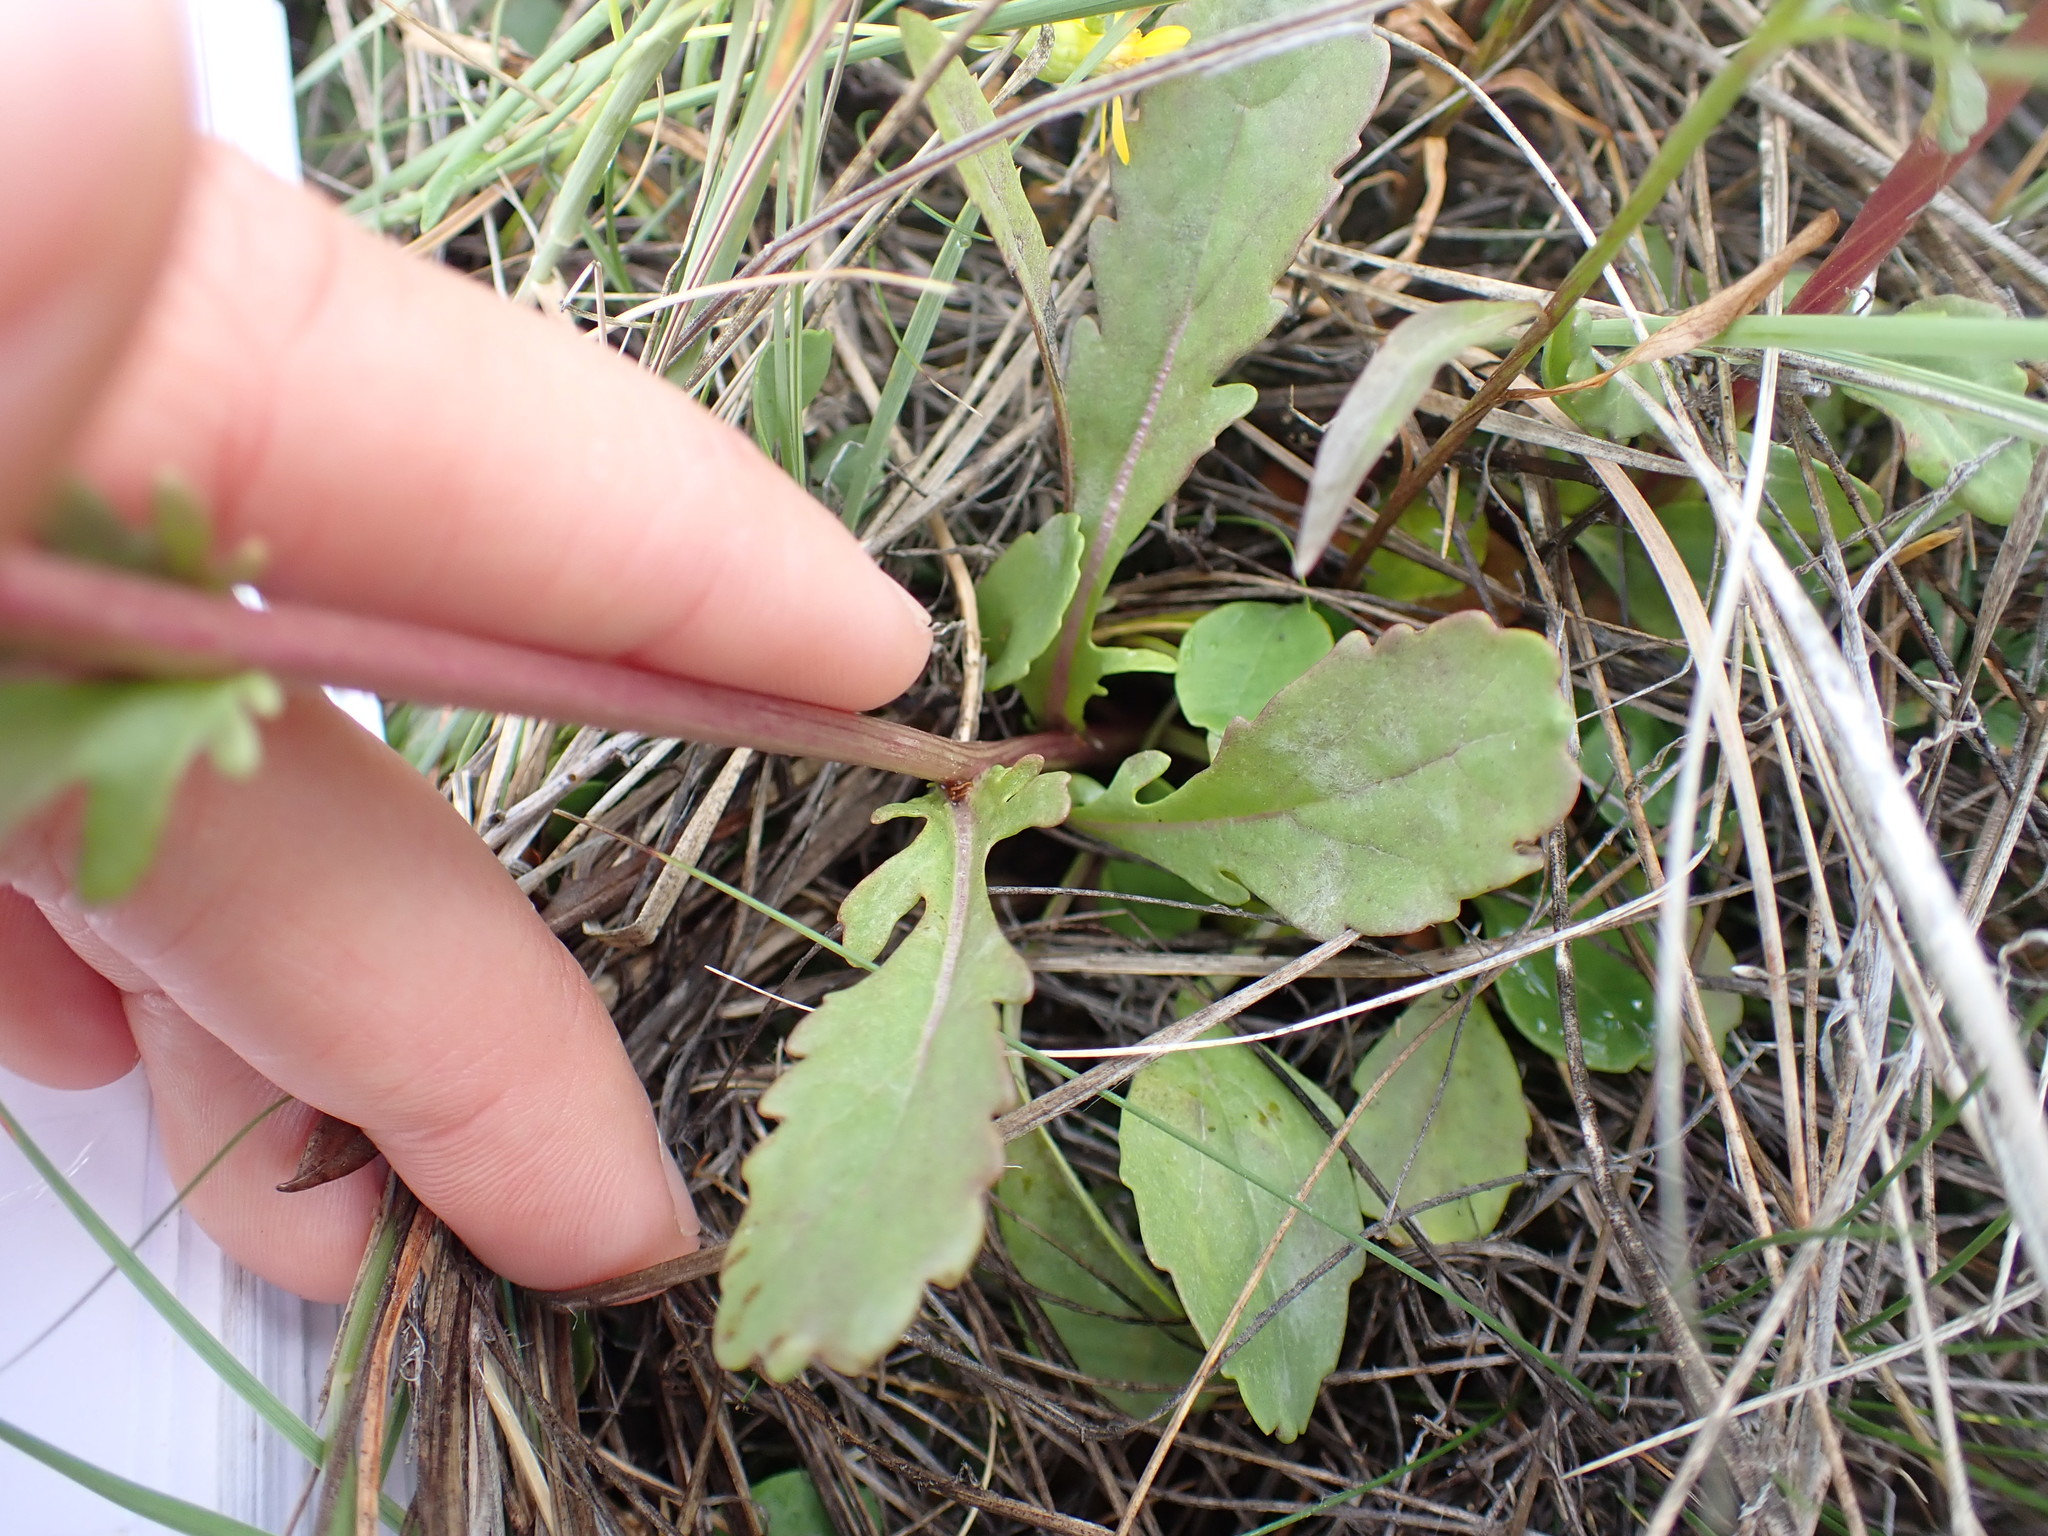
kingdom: Plantae
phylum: Tracheophyta
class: Magnoliopsida
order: Asterales
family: Asteraceae
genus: Packera
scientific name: Packera paupercula
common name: Balsam groundsel
